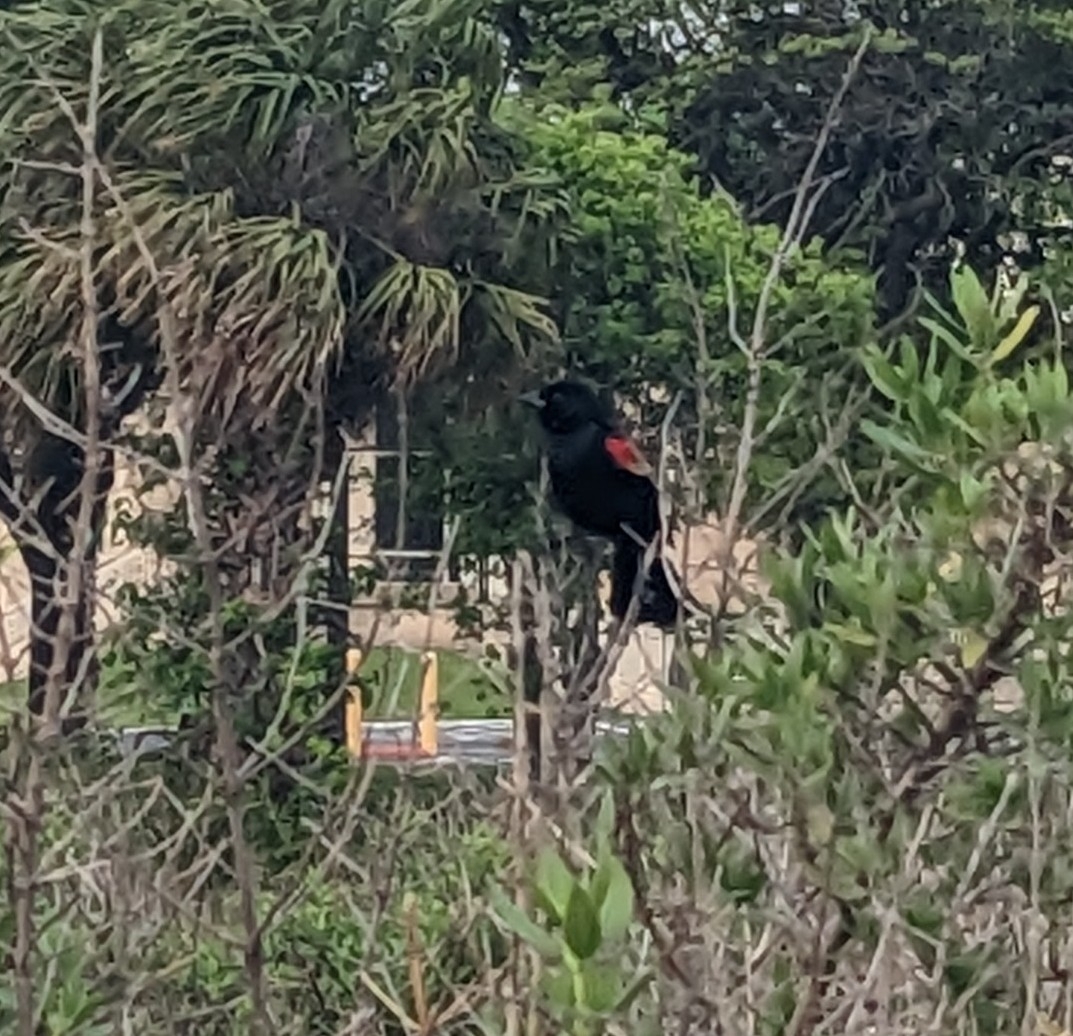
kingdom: Animalia
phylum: Chordata
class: Aves
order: Passeriformes
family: Icteridae
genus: Agelaius
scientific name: Agelaius phoeniceus
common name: Red-winged blackbird
